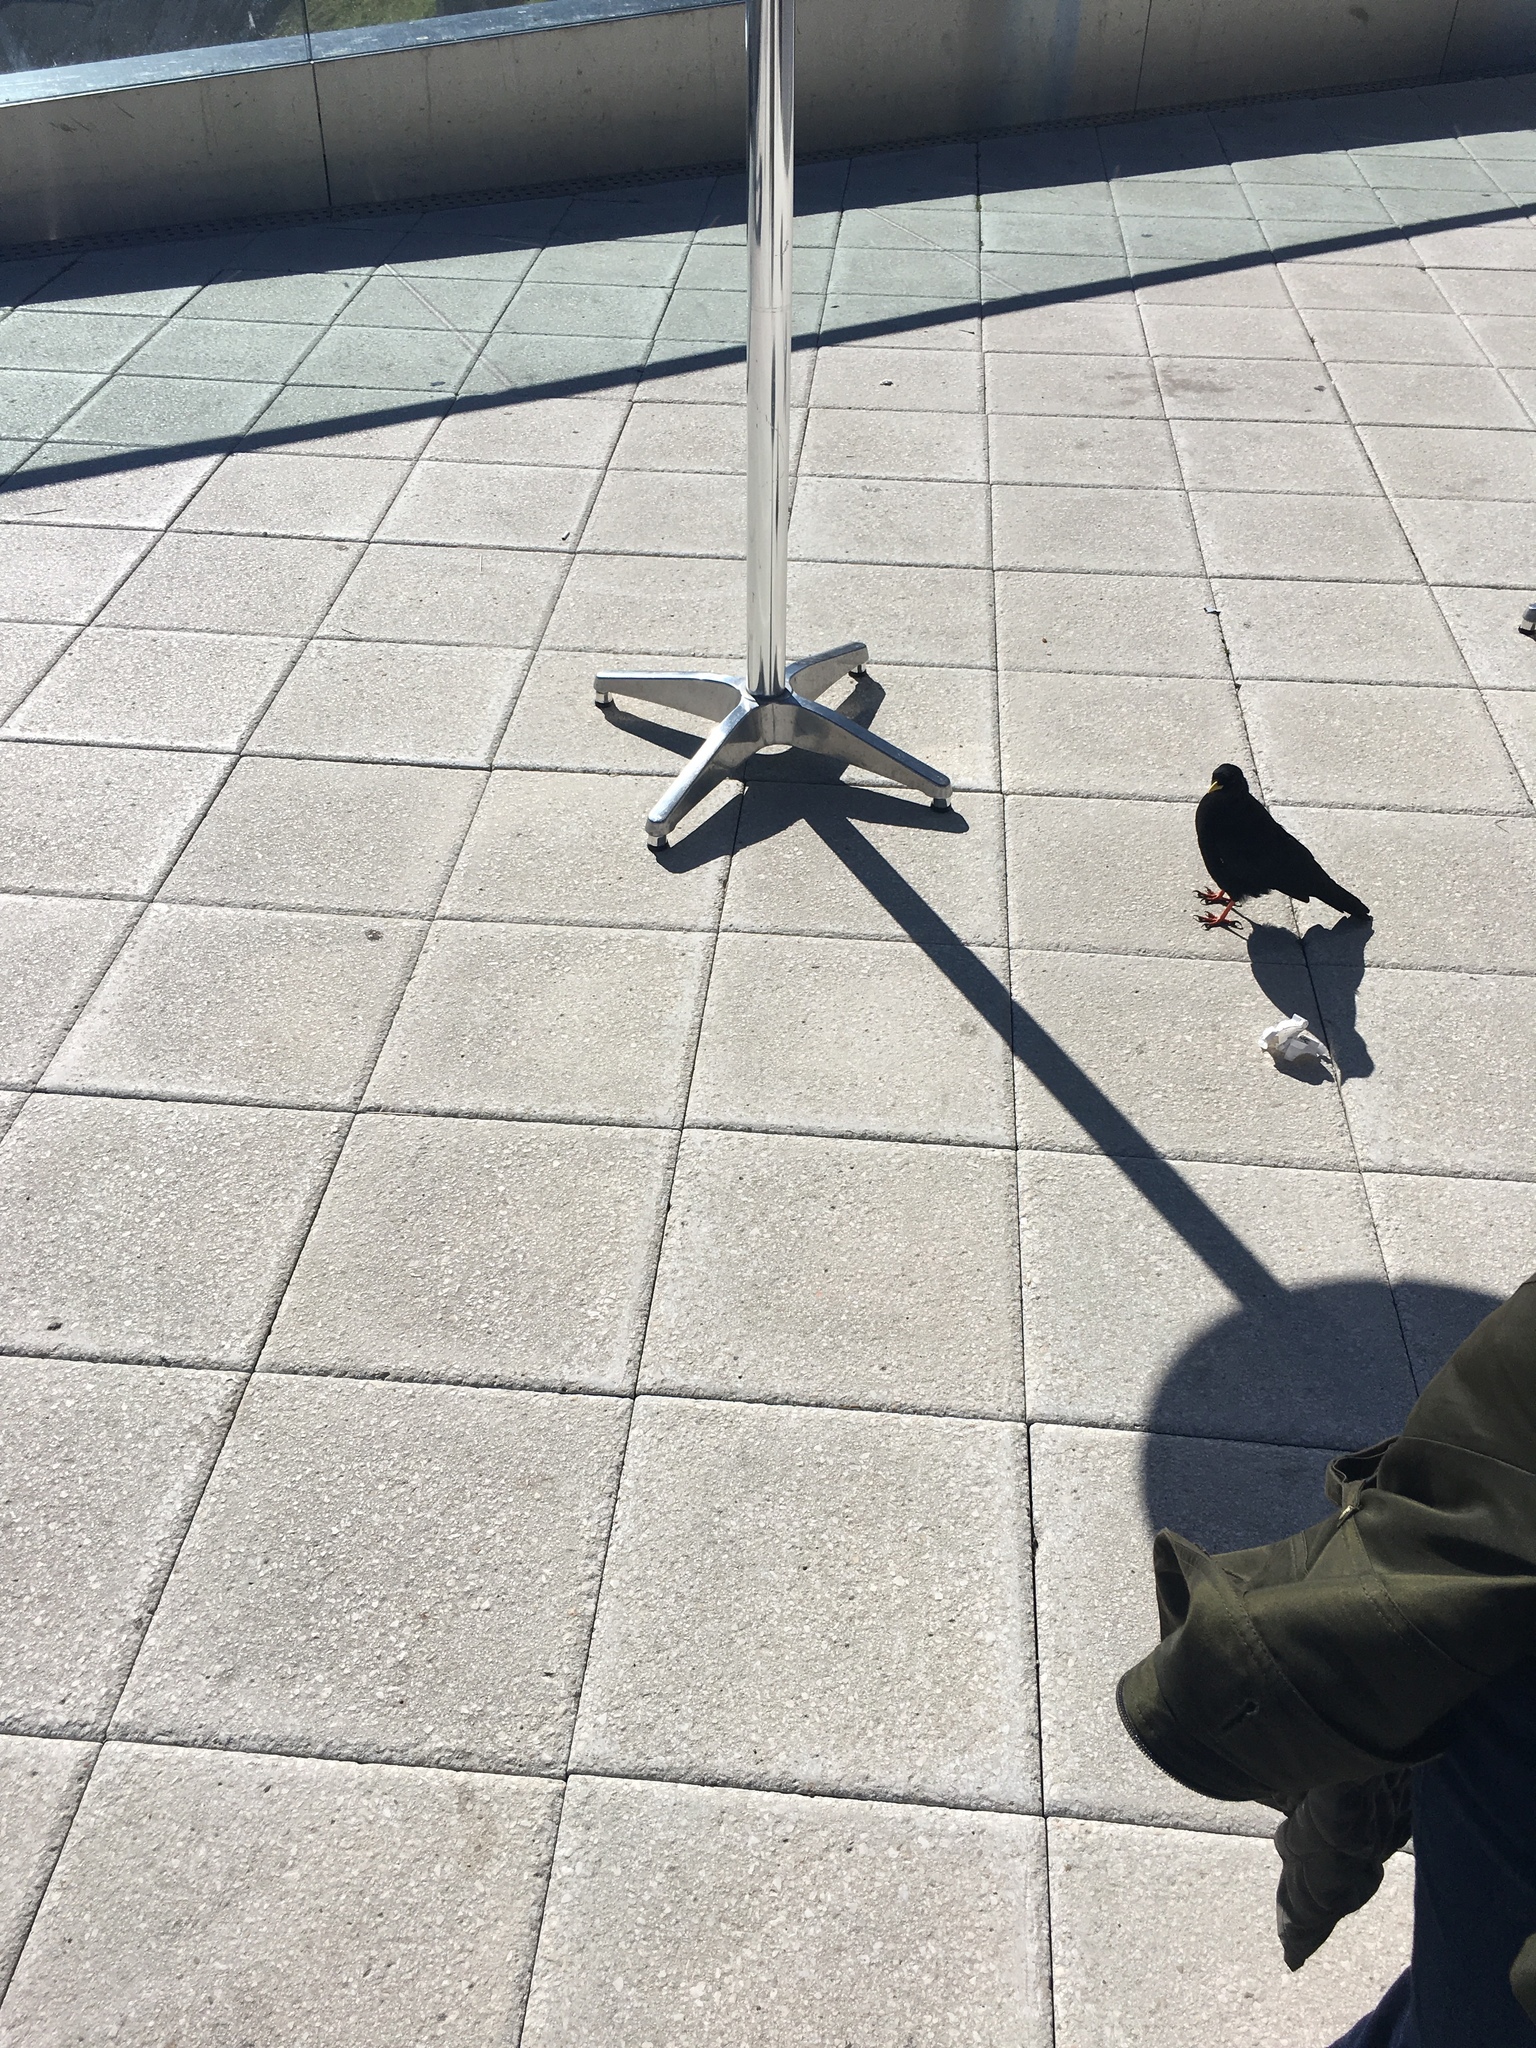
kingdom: Animalia
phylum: Chordata
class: Aves
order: Passeriformes
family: Corvidae
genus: Pyrrhocorax
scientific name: Pyrrhocorax graculus
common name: Alpine chough
